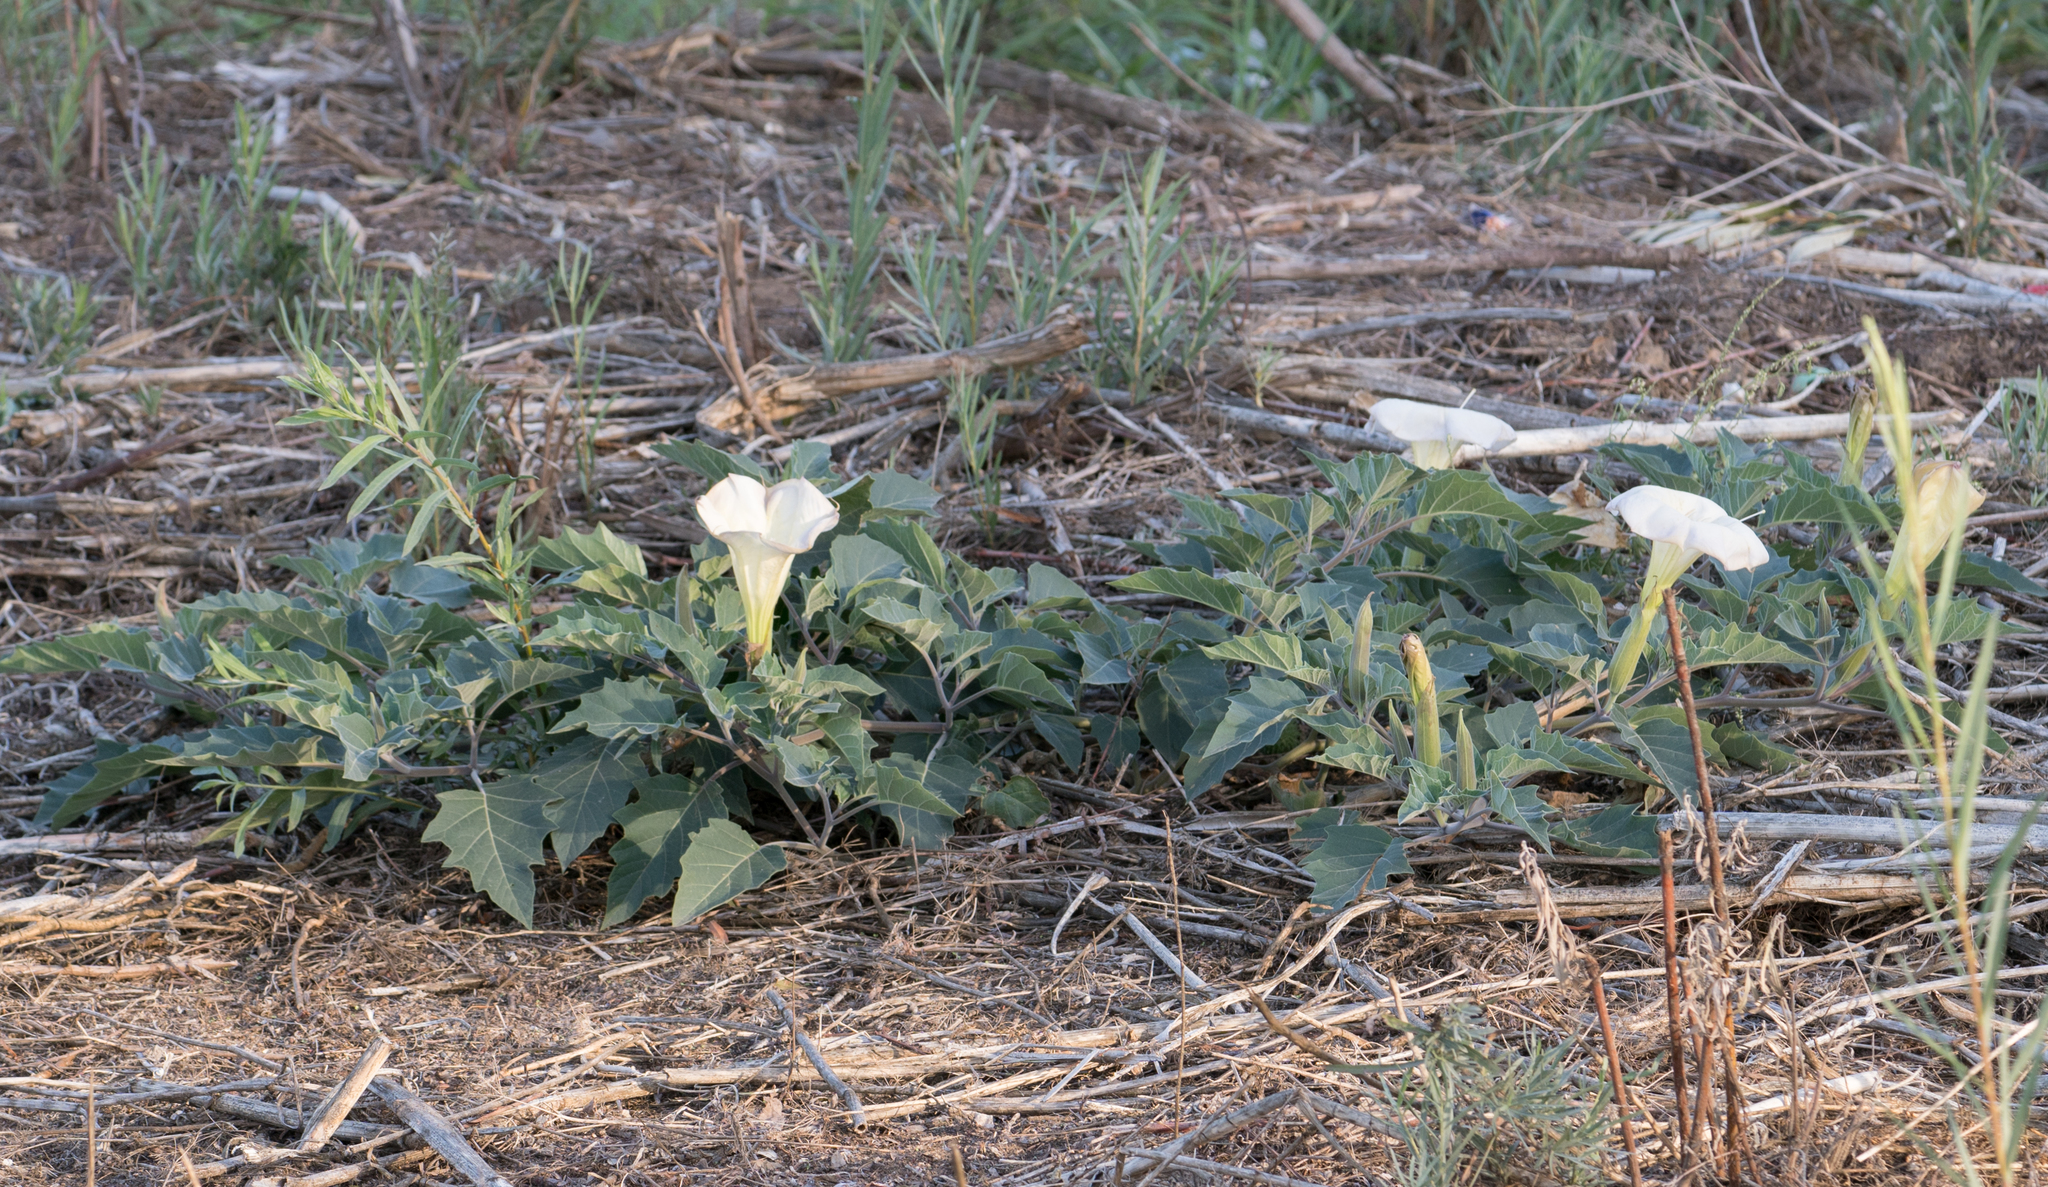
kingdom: Plantae
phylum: Tracheophyta
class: Magnoliopsida
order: Solanales
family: Solanaceae
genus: Datura
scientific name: Datura wrightii
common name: Sacred thorn-apple
